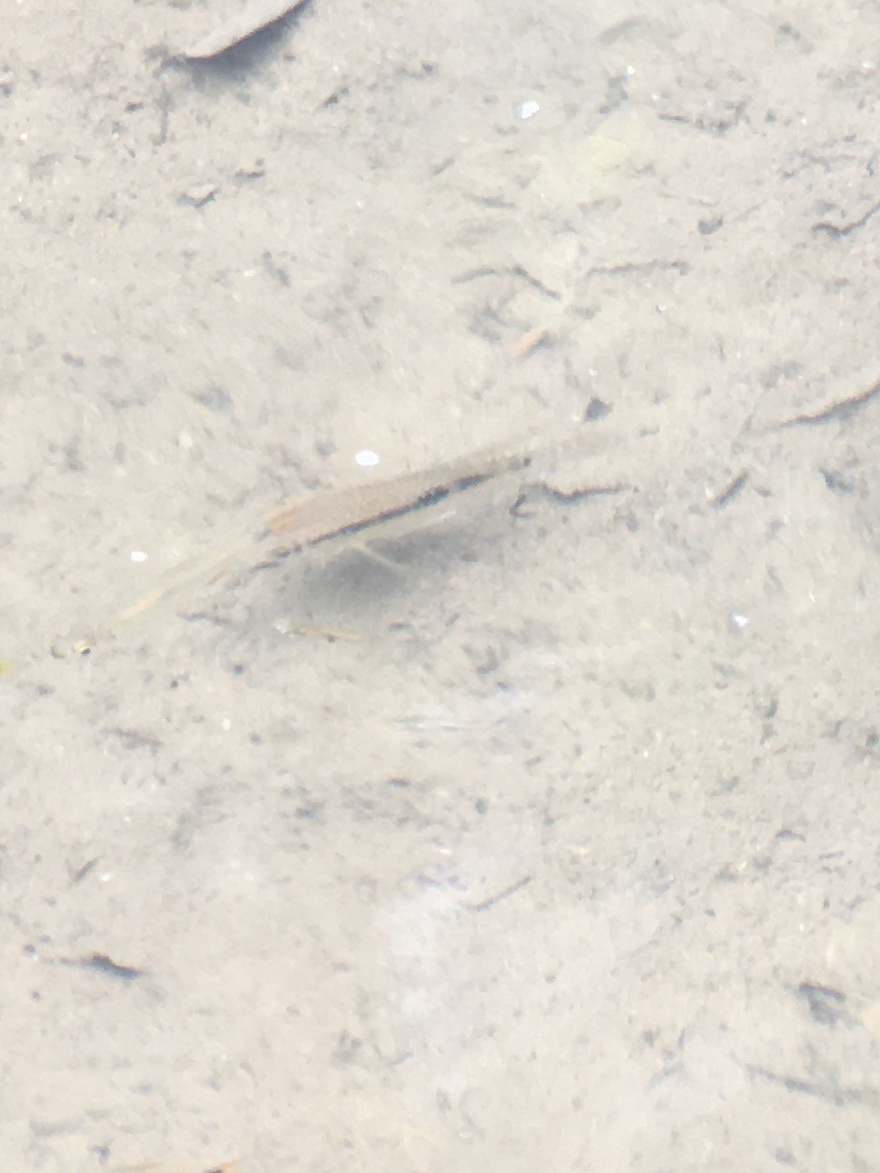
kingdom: Animalia
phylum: Chordata
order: Perciformes
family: Cichlidae
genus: Andinoacara
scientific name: Andinoacara coeruleopunctatus
